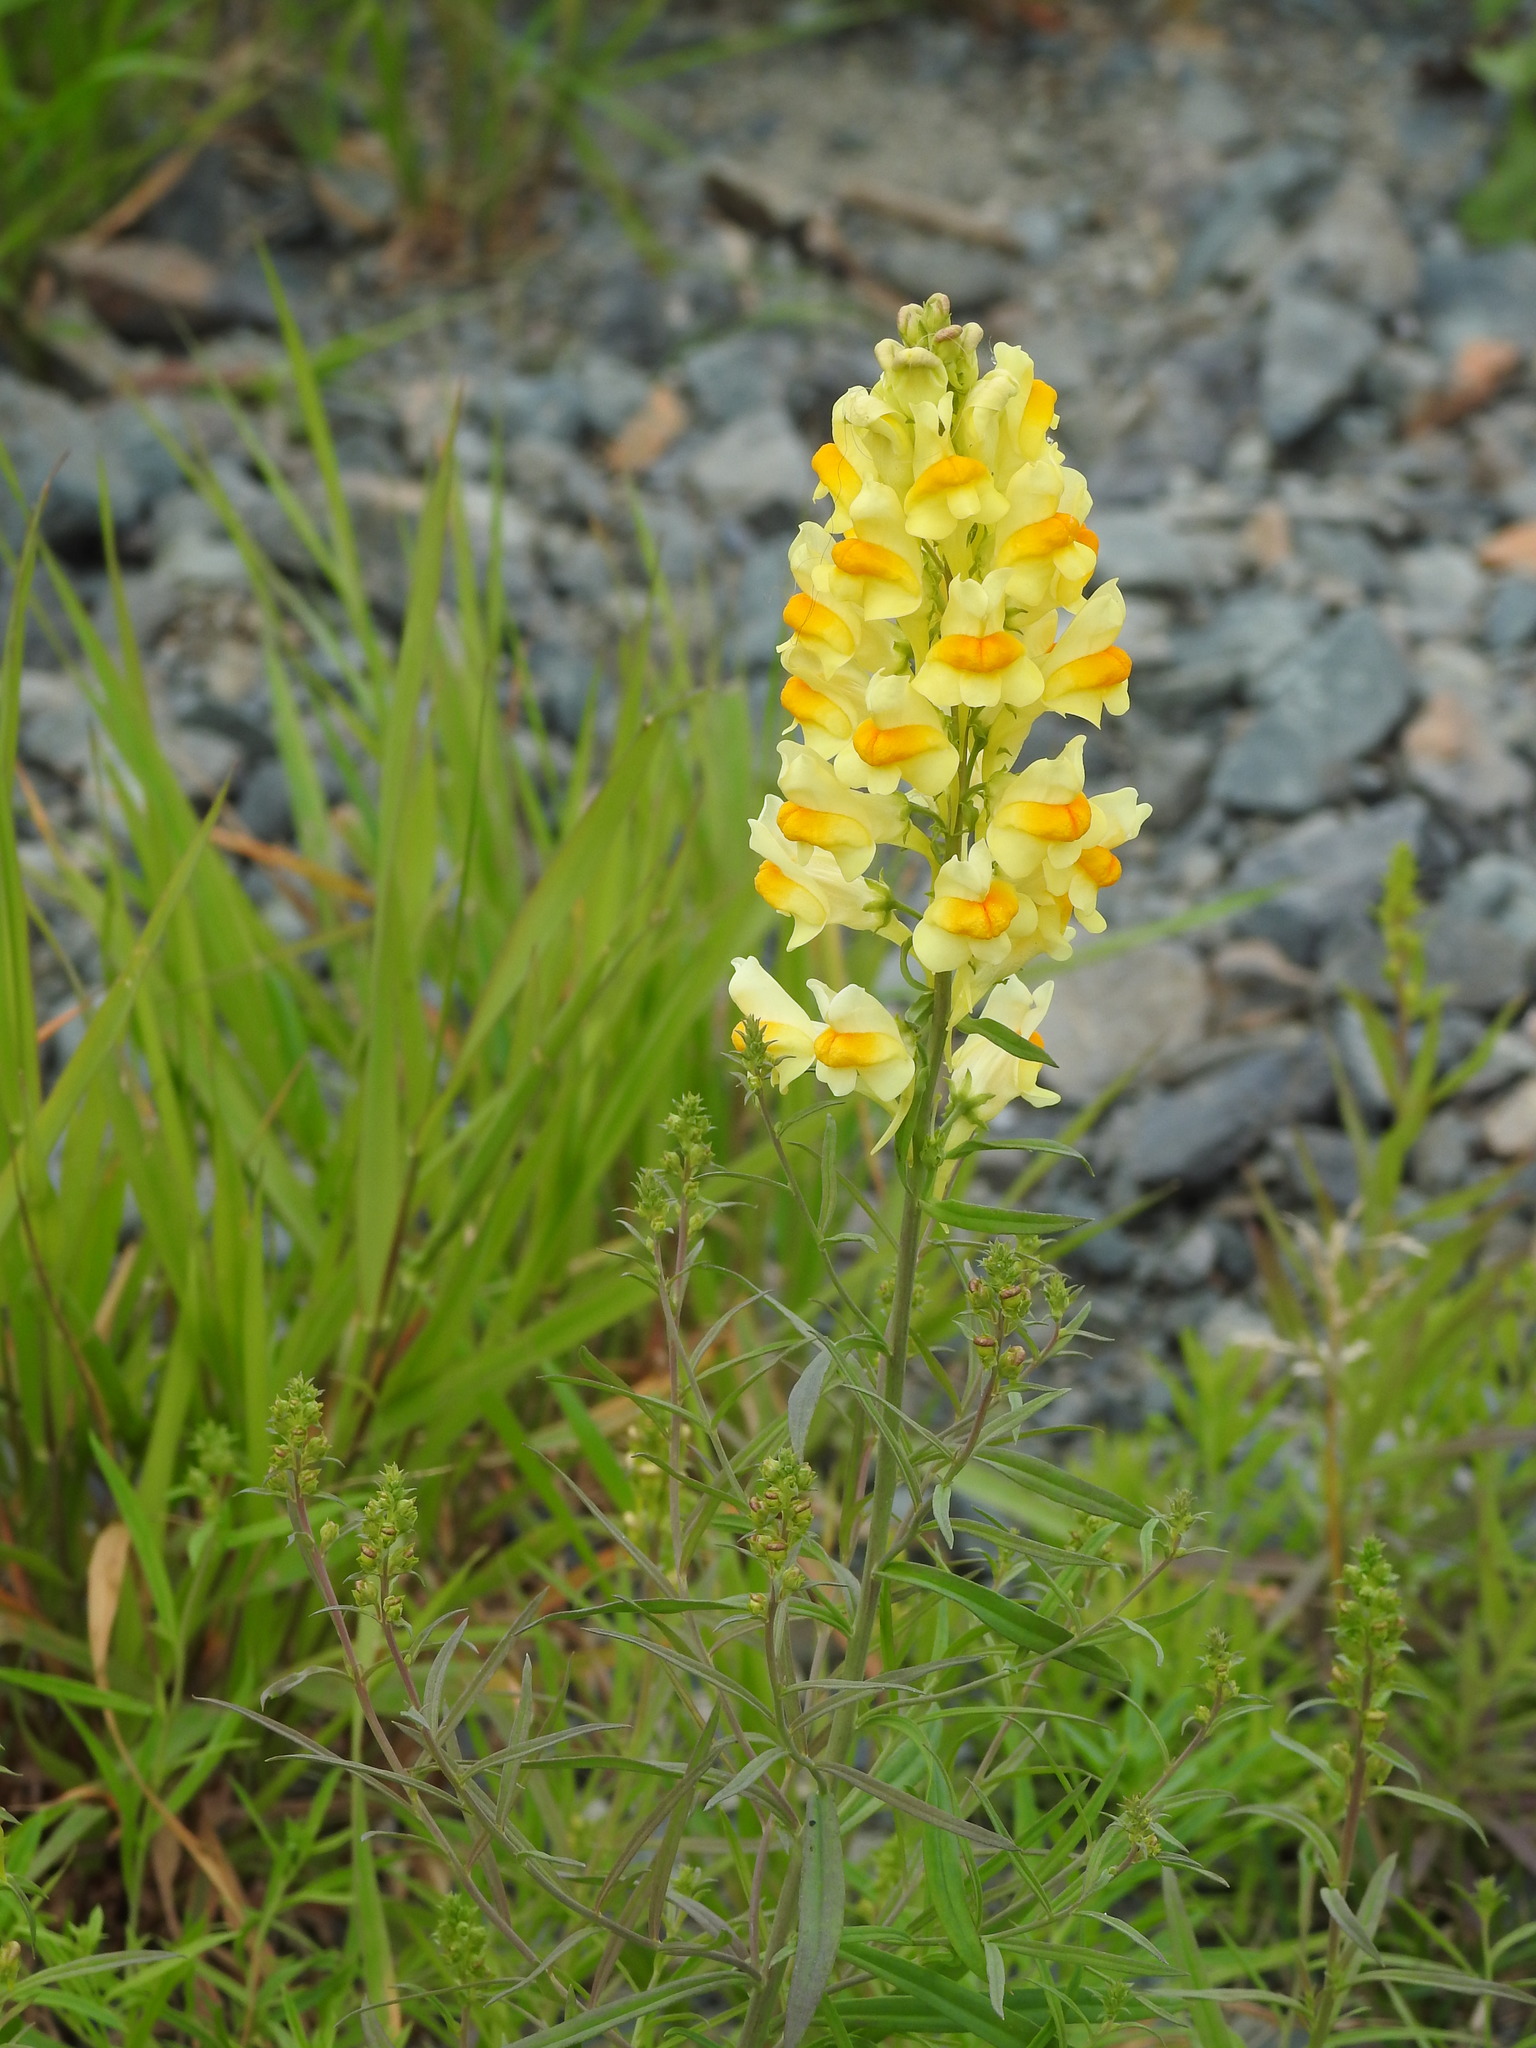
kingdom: Plantae
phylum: Tracheophyta
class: Magnoliopsida
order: Lamiales
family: Plantaginaceae
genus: Linaria
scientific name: Linaria vulgaris
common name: Butter and eggs
